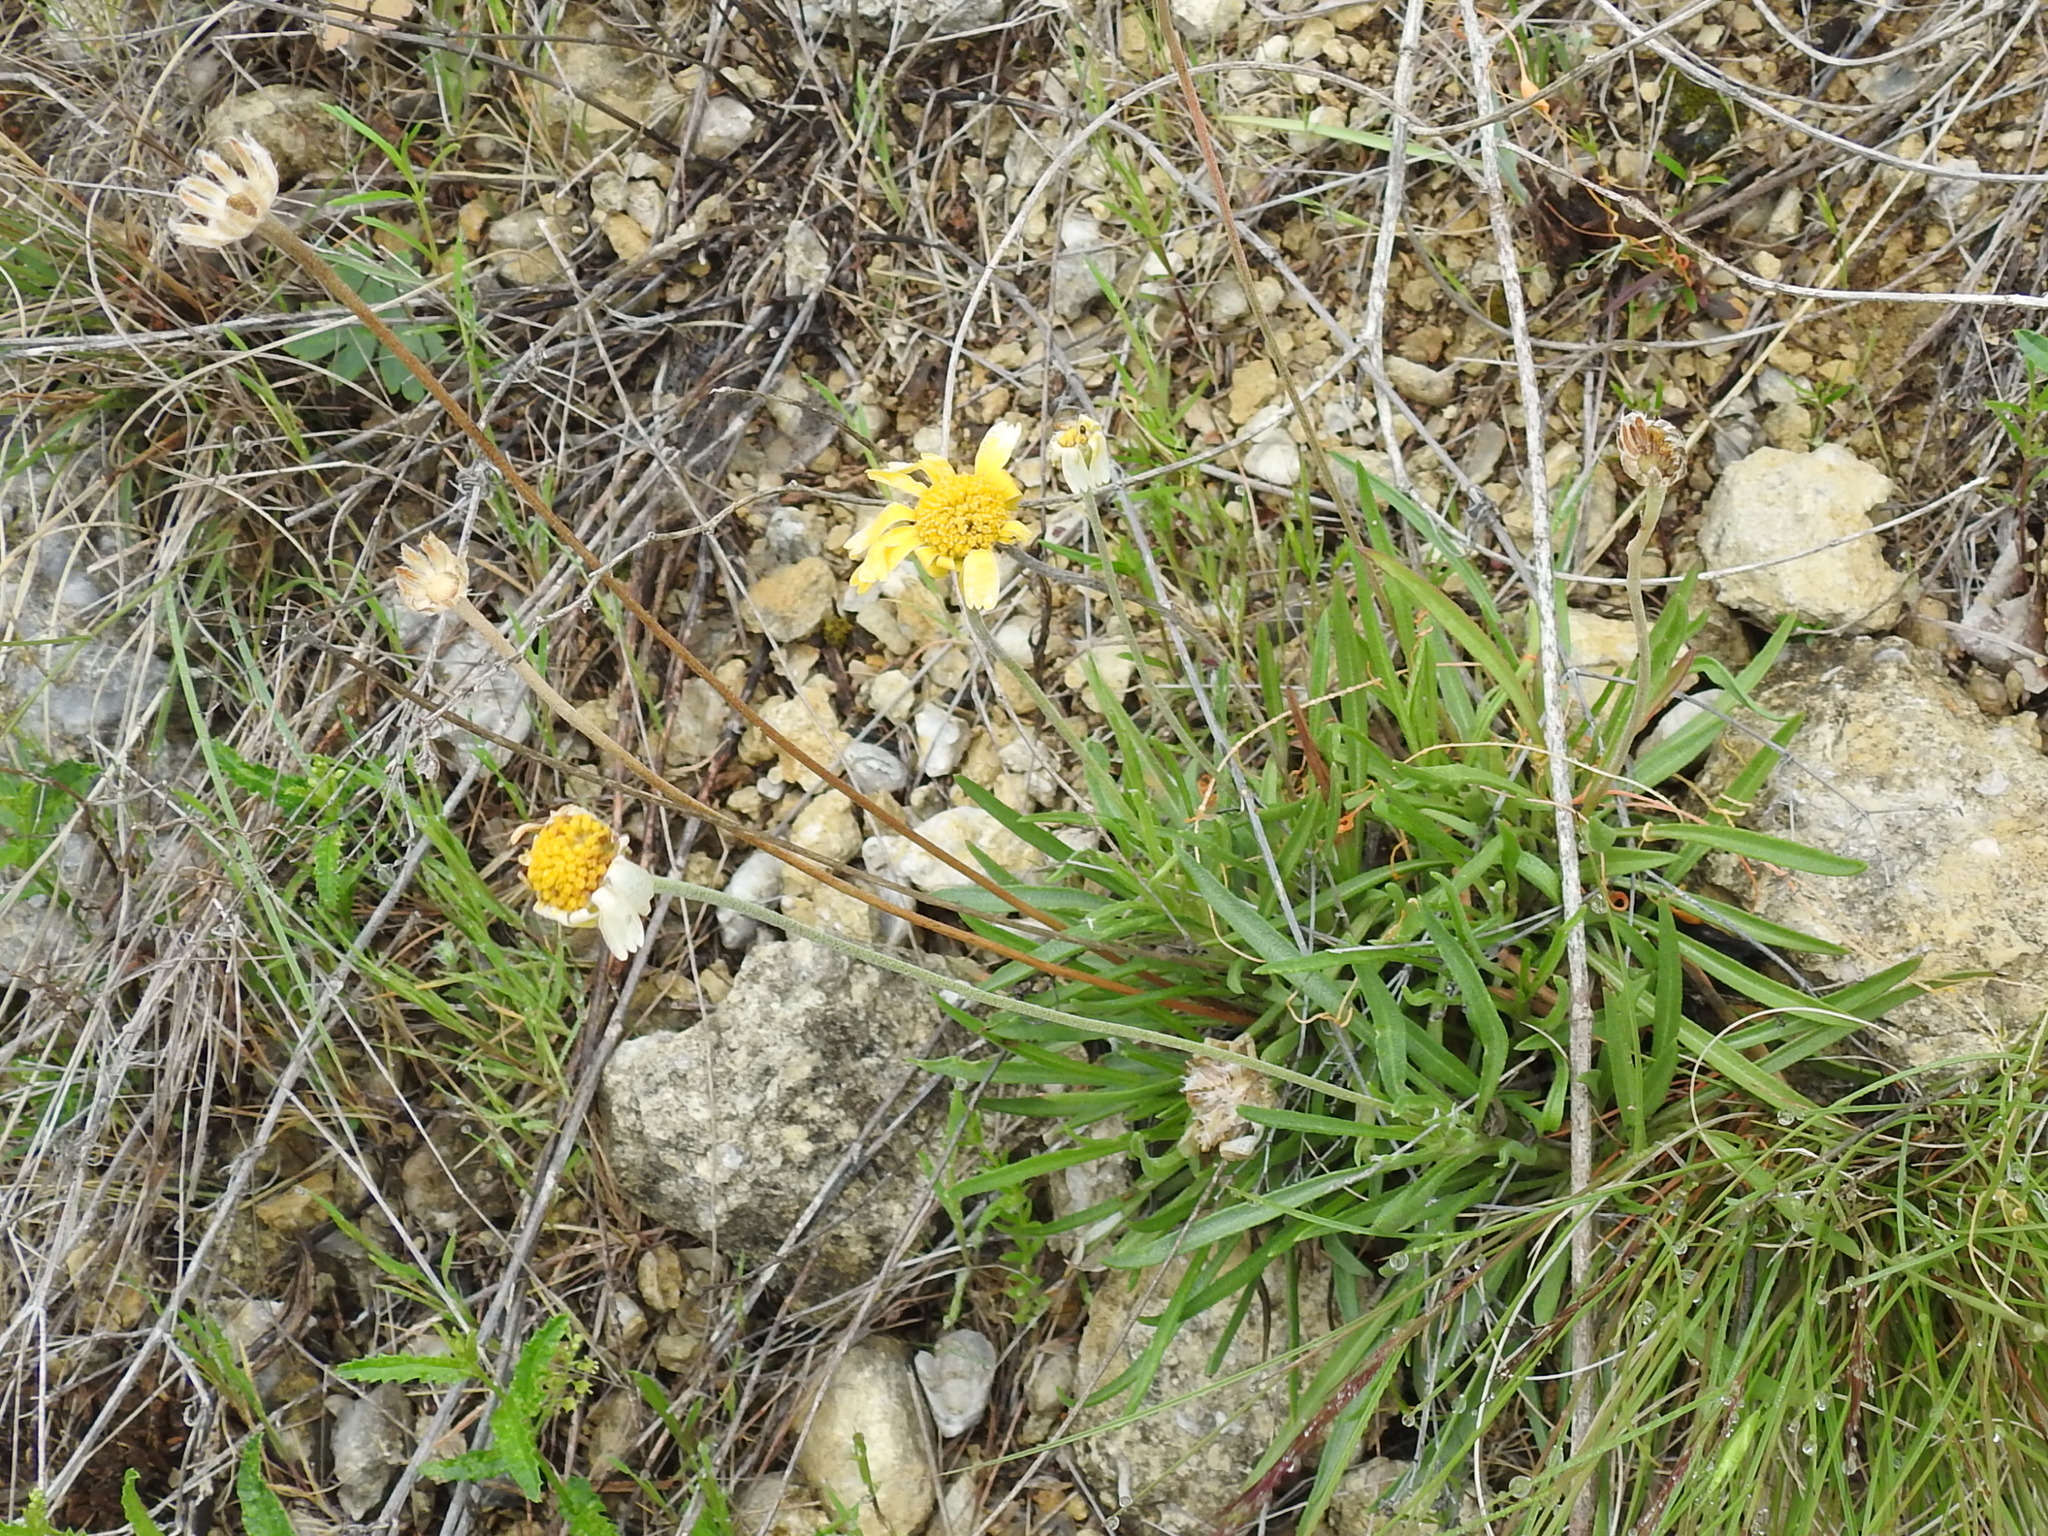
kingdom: Plantae
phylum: Tracheophyta
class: Magnoliopsida
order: Asterales
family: Asteraceae
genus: Tetraneuris
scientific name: Tetraneuris scaposa
